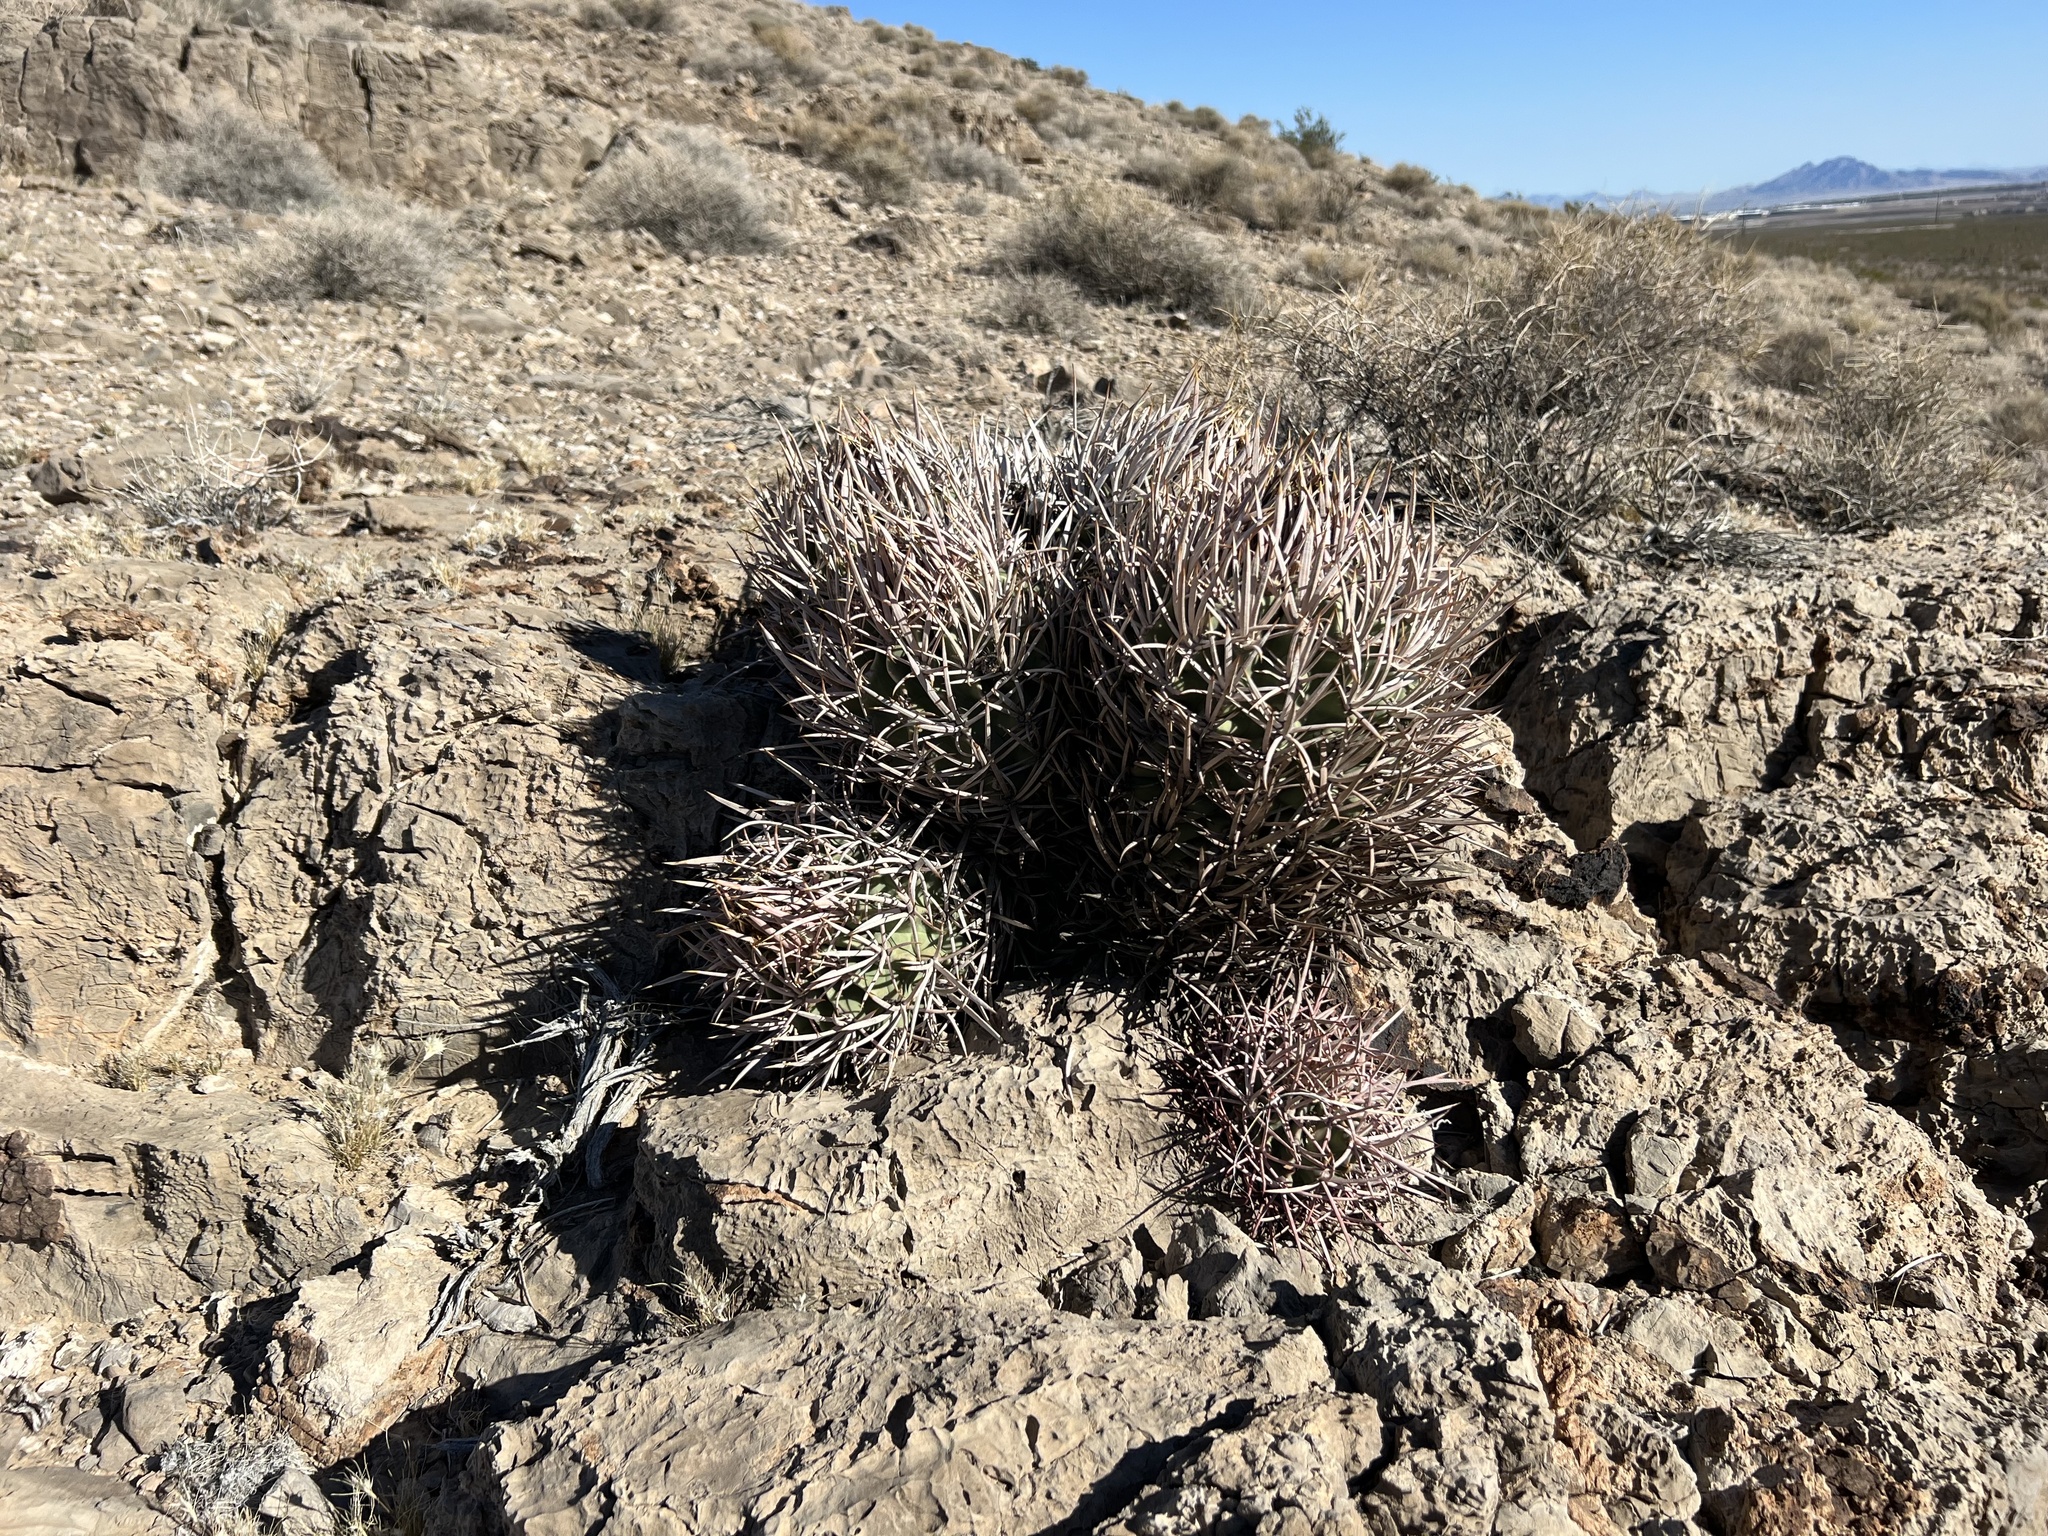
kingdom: Plantae
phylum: Tracheophyta
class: Magnoliopsida
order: Caryophyllales
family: Cactaceae
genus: Echinocactus
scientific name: Echinocactus polycephalus
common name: Cottontop cactus
